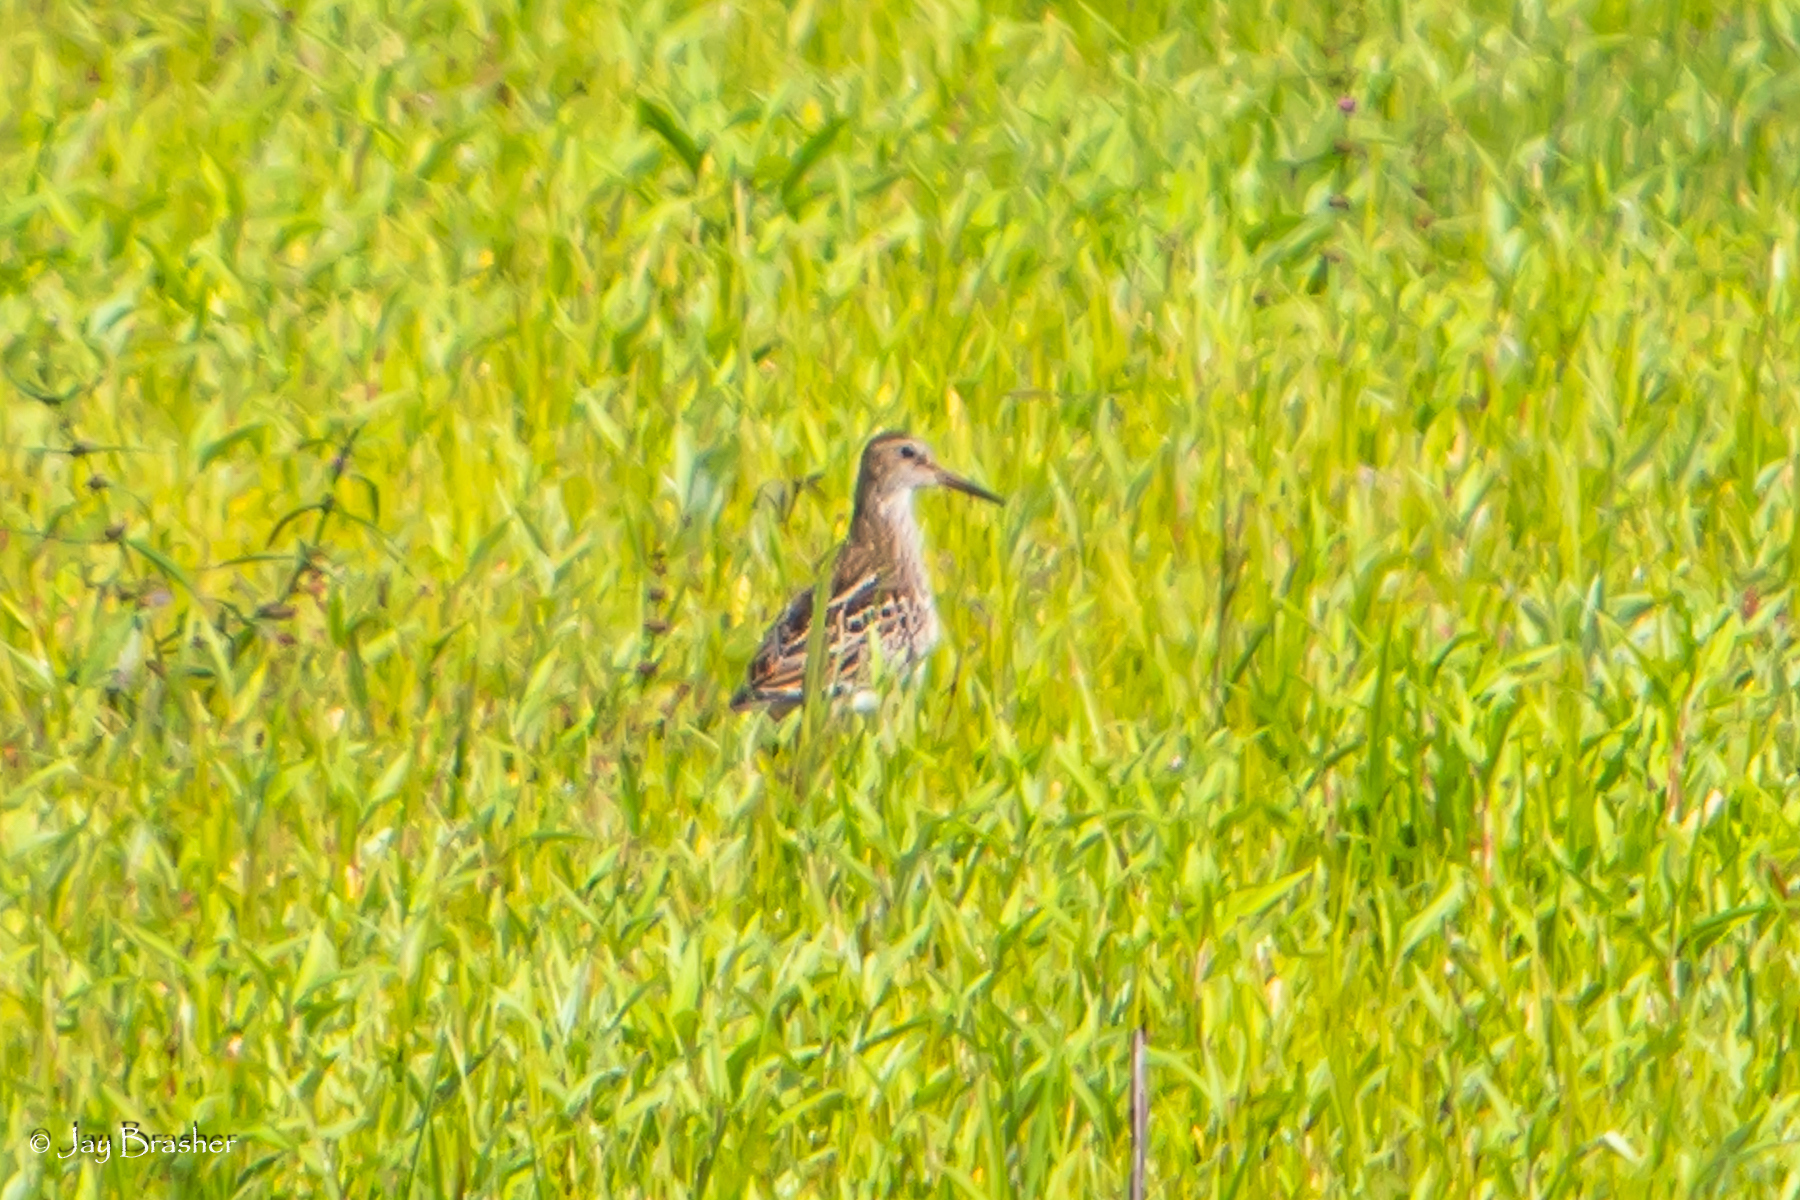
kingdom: Animalia
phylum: Chordata
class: Aves
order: Charadriiformes
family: Scolopacidae
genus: Calidris
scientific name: Calidris melanotos
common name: Pectoral sandpiper
